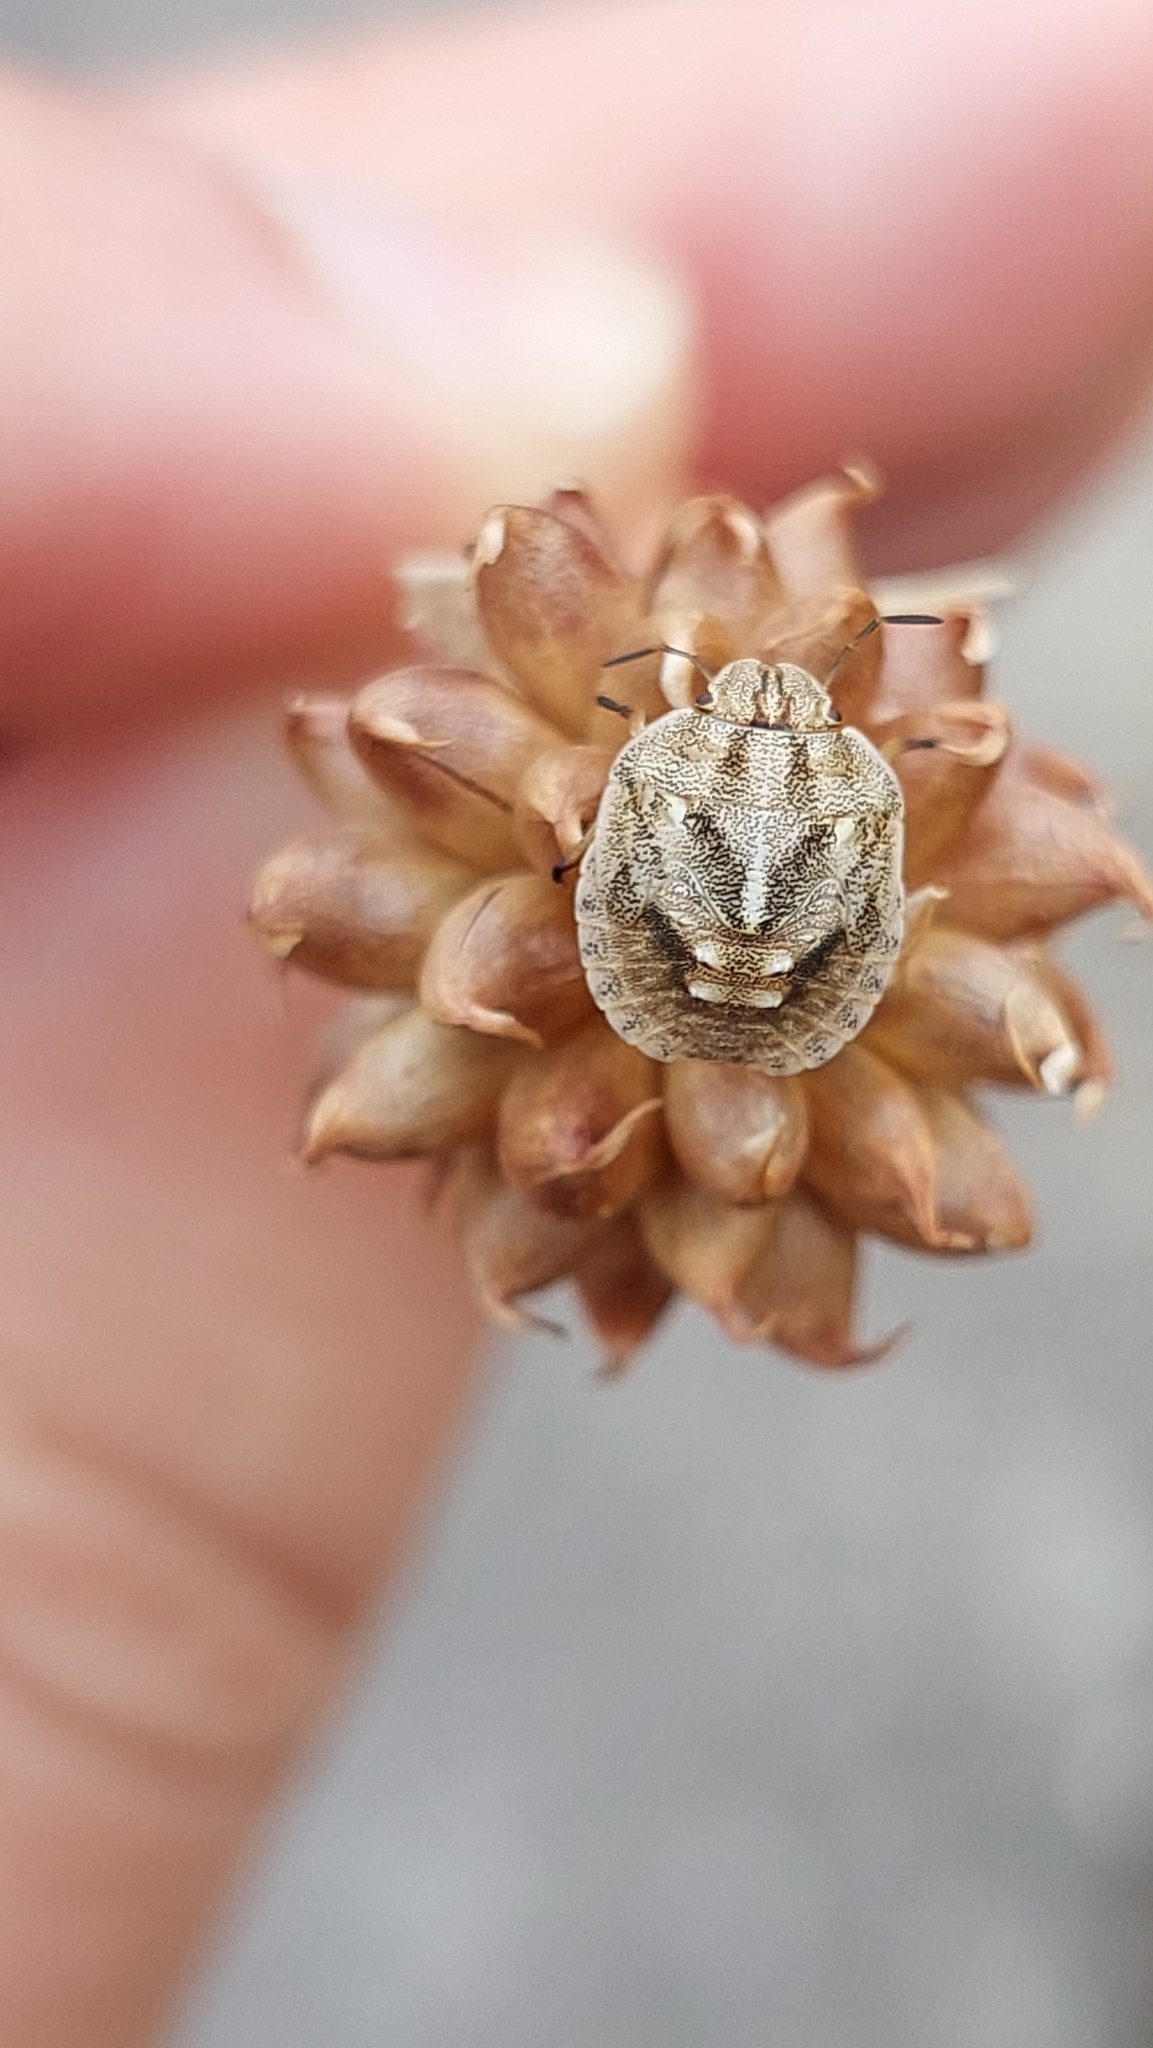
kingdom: Animalia
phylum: Arthropoda
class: Insecta
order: Hemiptera
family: Scutelleridae
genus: Eurygaster
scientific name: Eurygaster testudinaria
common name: Tortoise bug
